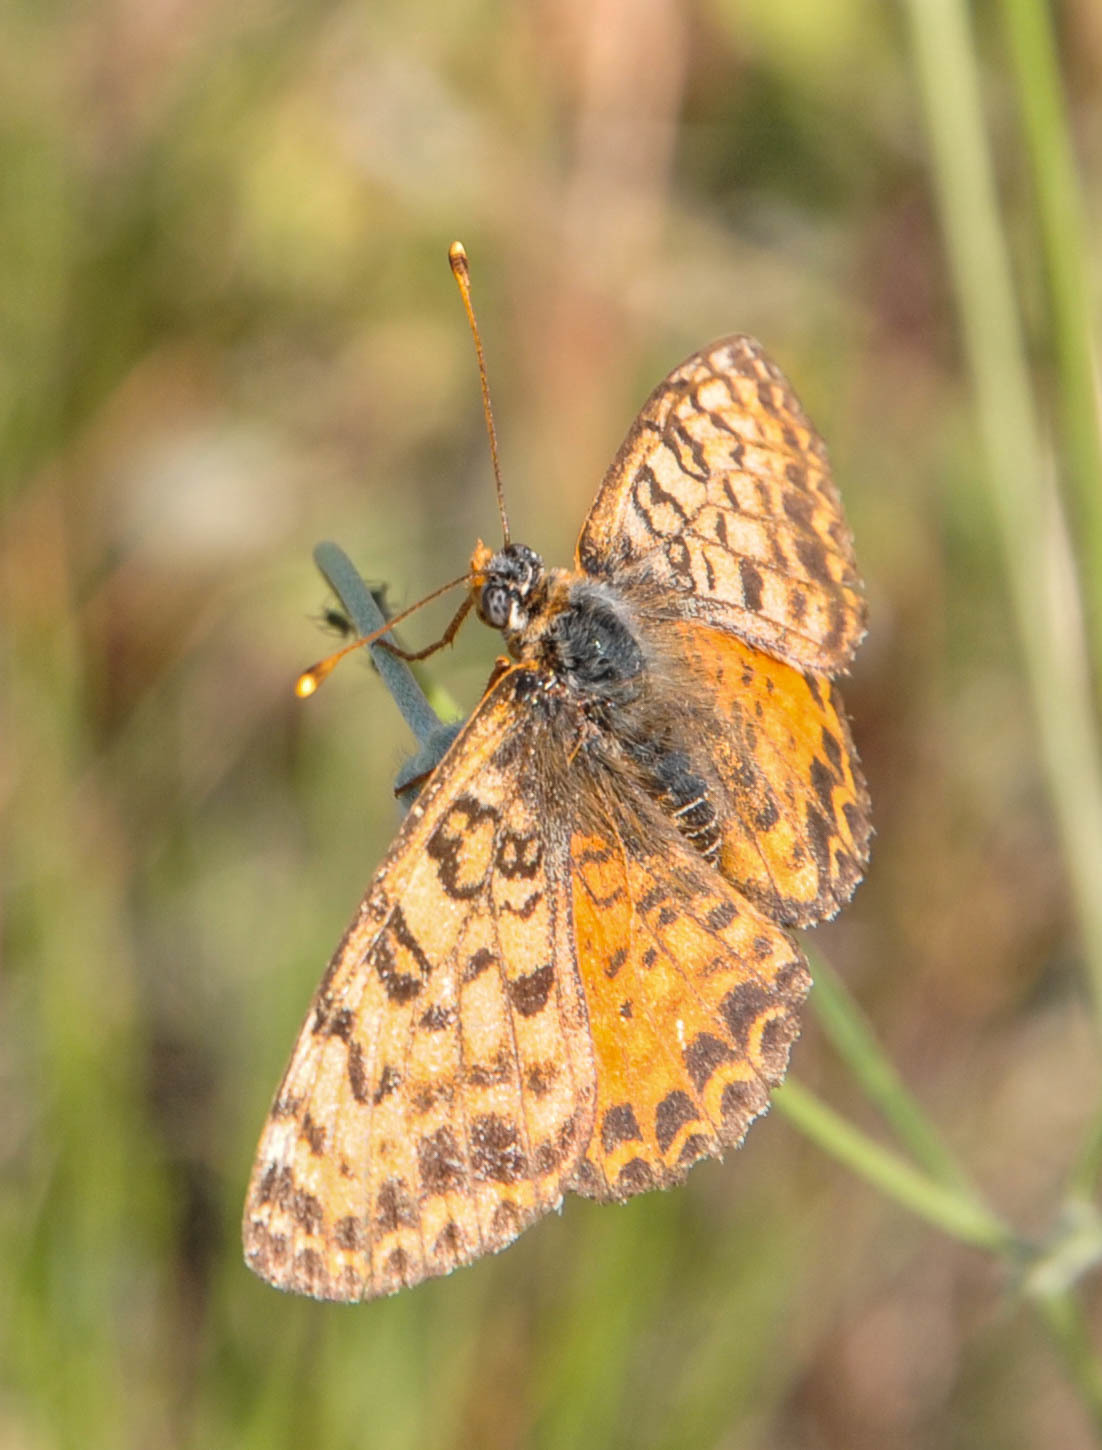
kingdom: Animalia
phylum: Arthropoda
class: Insecta
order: Lepidoptera
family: Nymphalidae
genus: Melitaea
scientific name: Melitaea didyma
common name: Spotted fritillary
